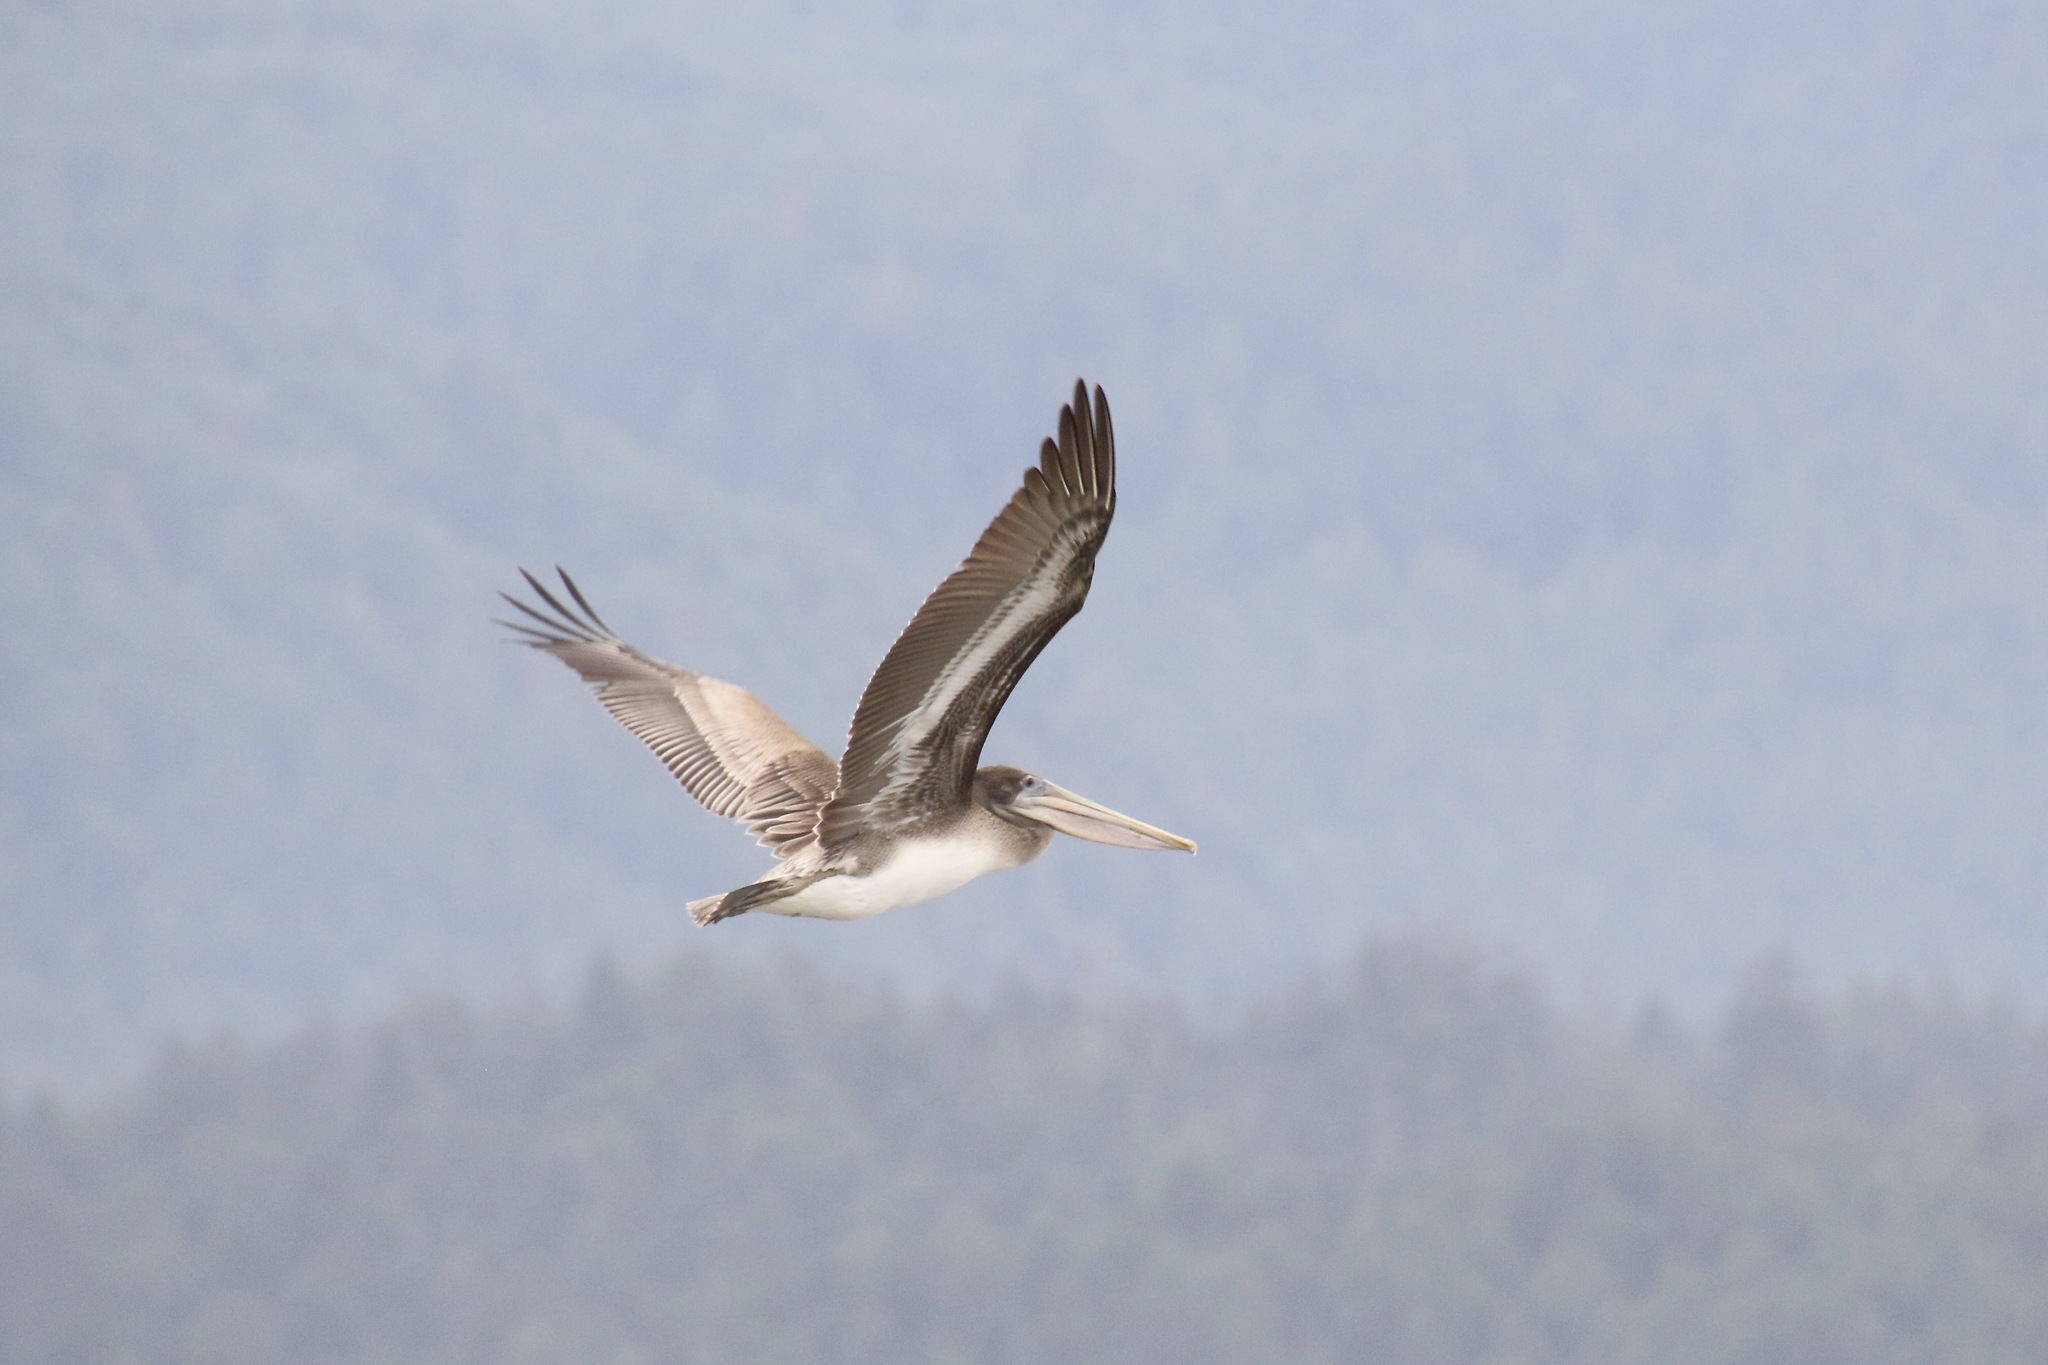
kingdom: Animalia
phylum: Chordata
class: Aves
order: Pelecaniformes
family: Pelecanidae
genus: Pelecanus
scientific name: Pelecanus occidentalis
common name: Brown pelican
